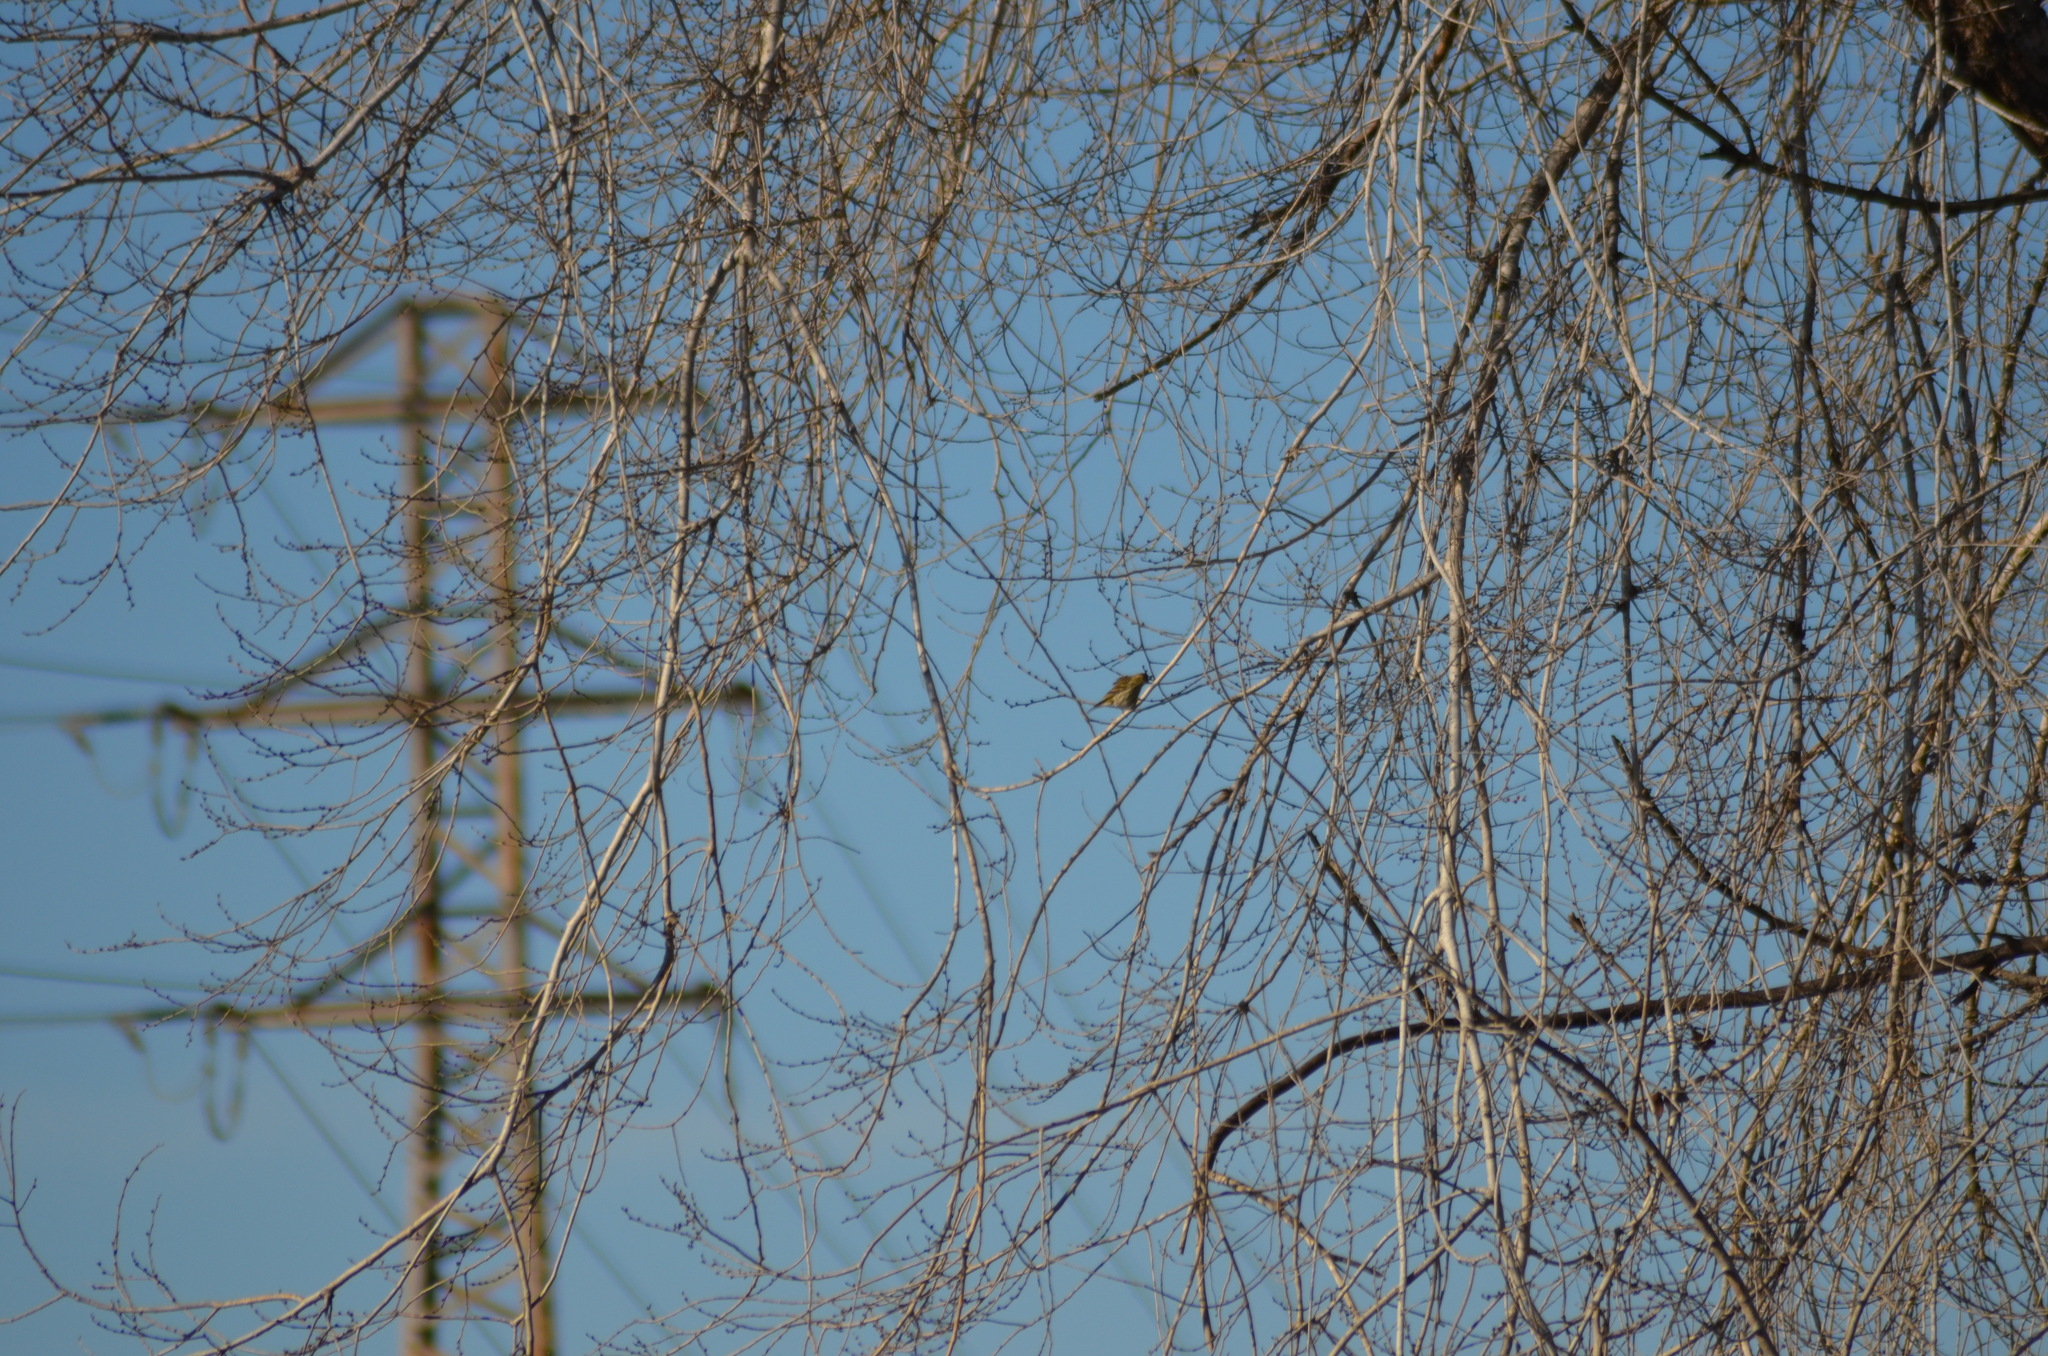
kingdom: Animalia
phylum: Chordata
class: Aves
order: Passeriformes
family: Fringillidae
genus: Serinus
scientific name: Serinus serinus
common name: European serin
